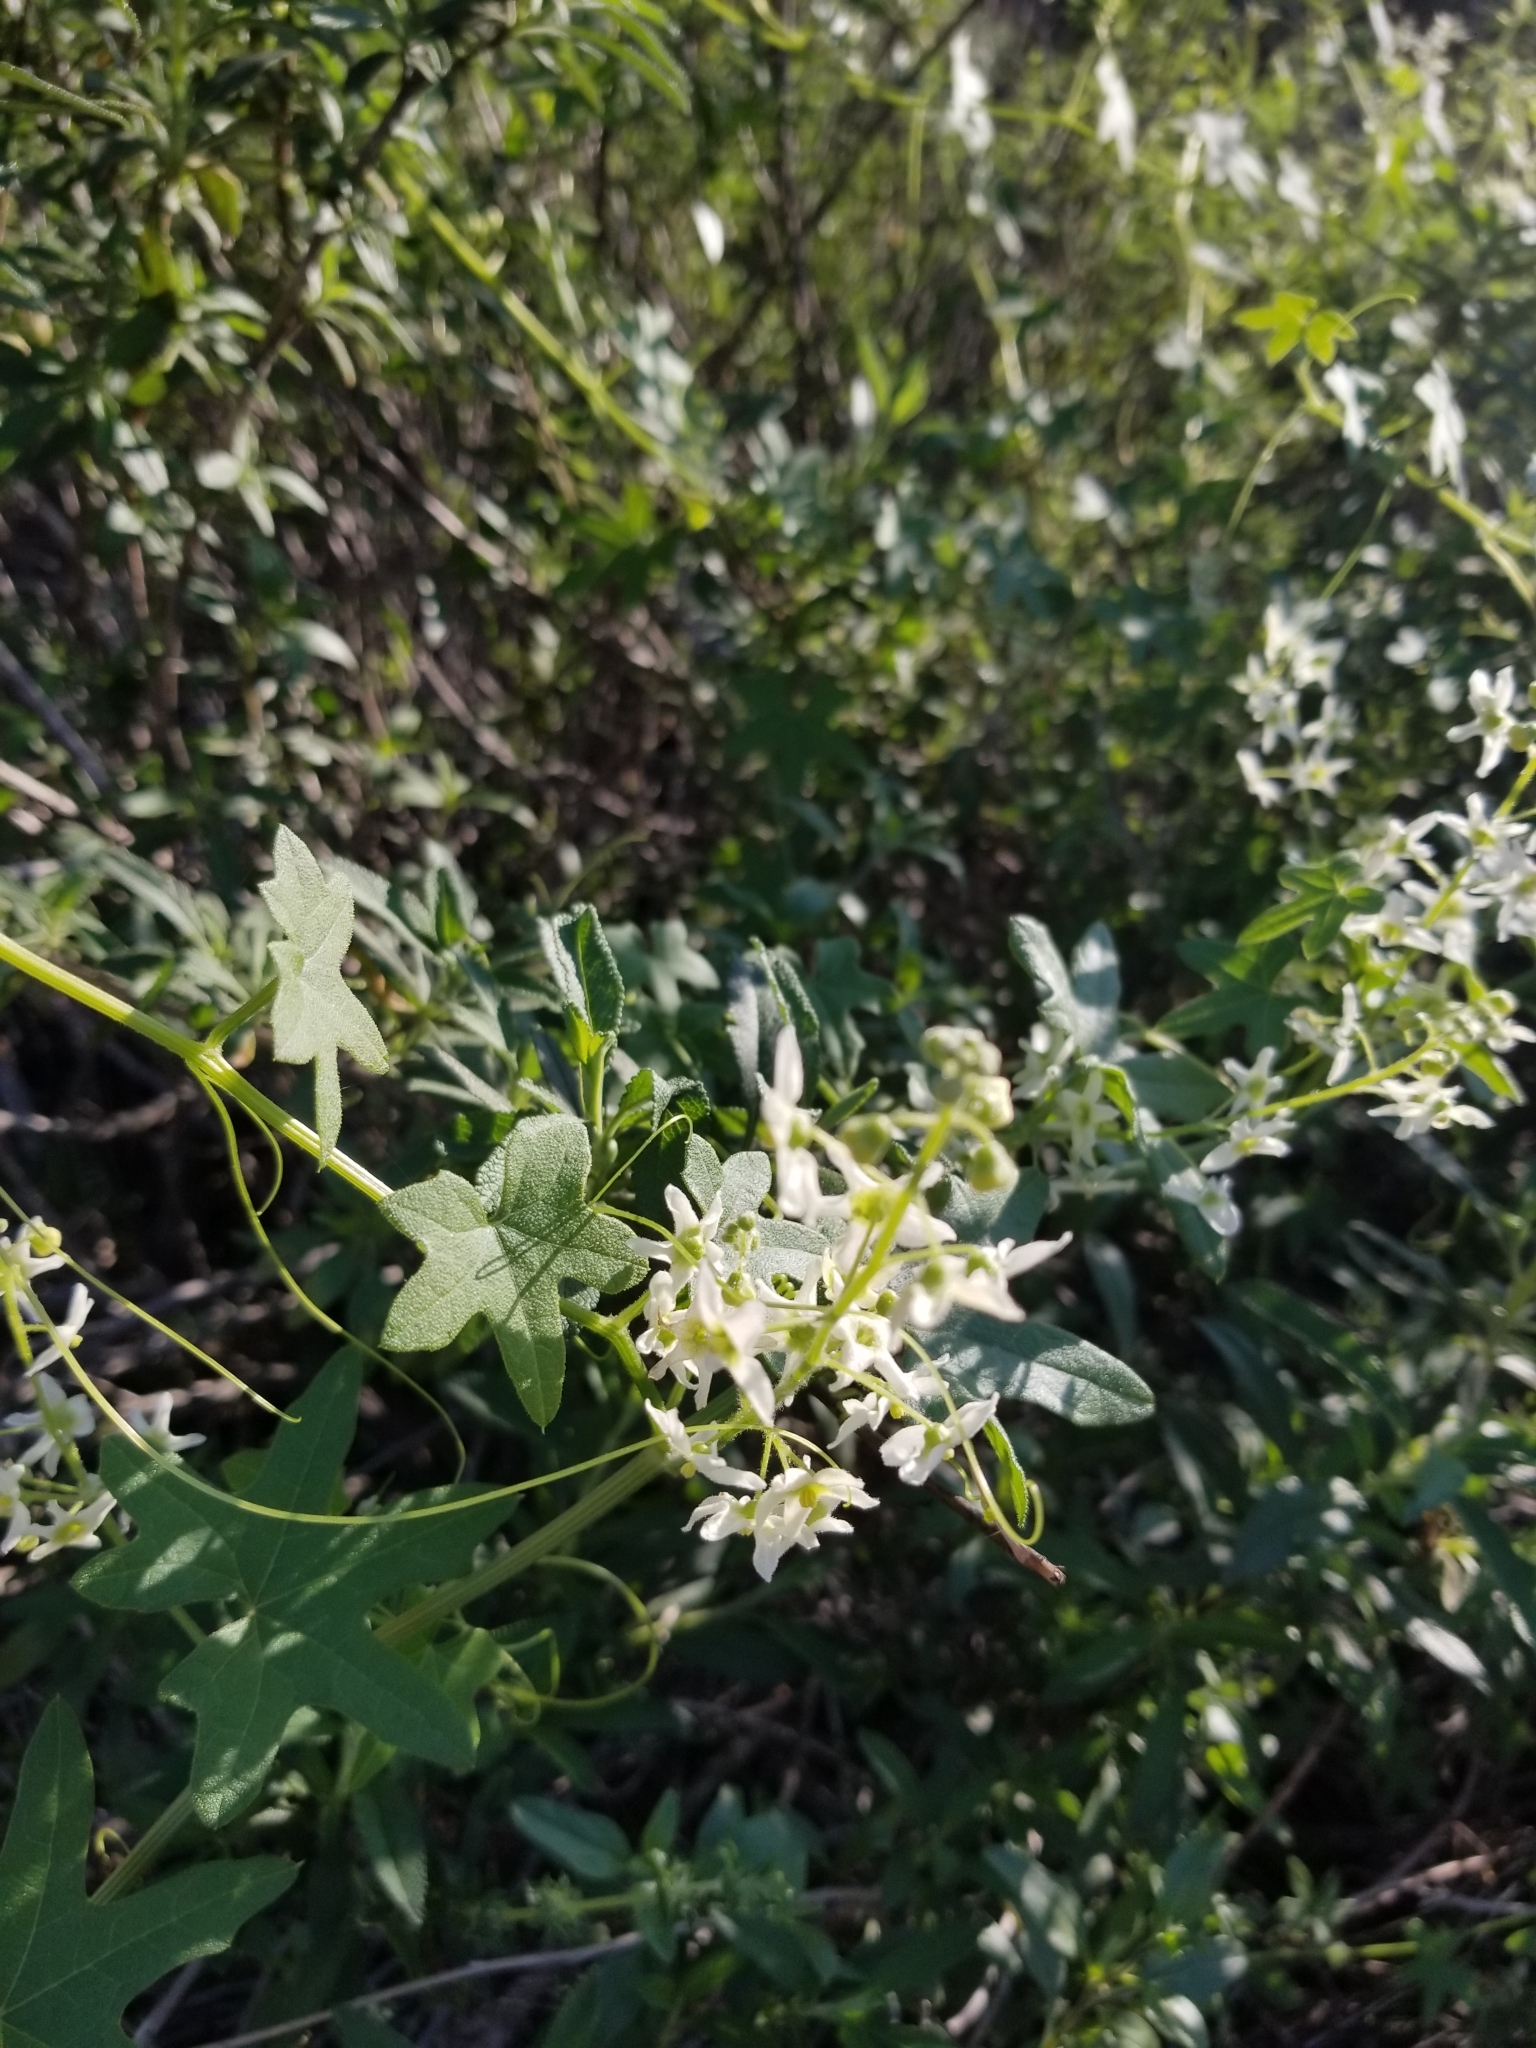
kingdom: Plantae
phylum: Tracheophyta
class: Magnoliopsida
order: Cucurbitales
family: Cucurbitaceae
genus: Marah
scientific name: Marah macrocarpa
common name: Cucamonga manroot
